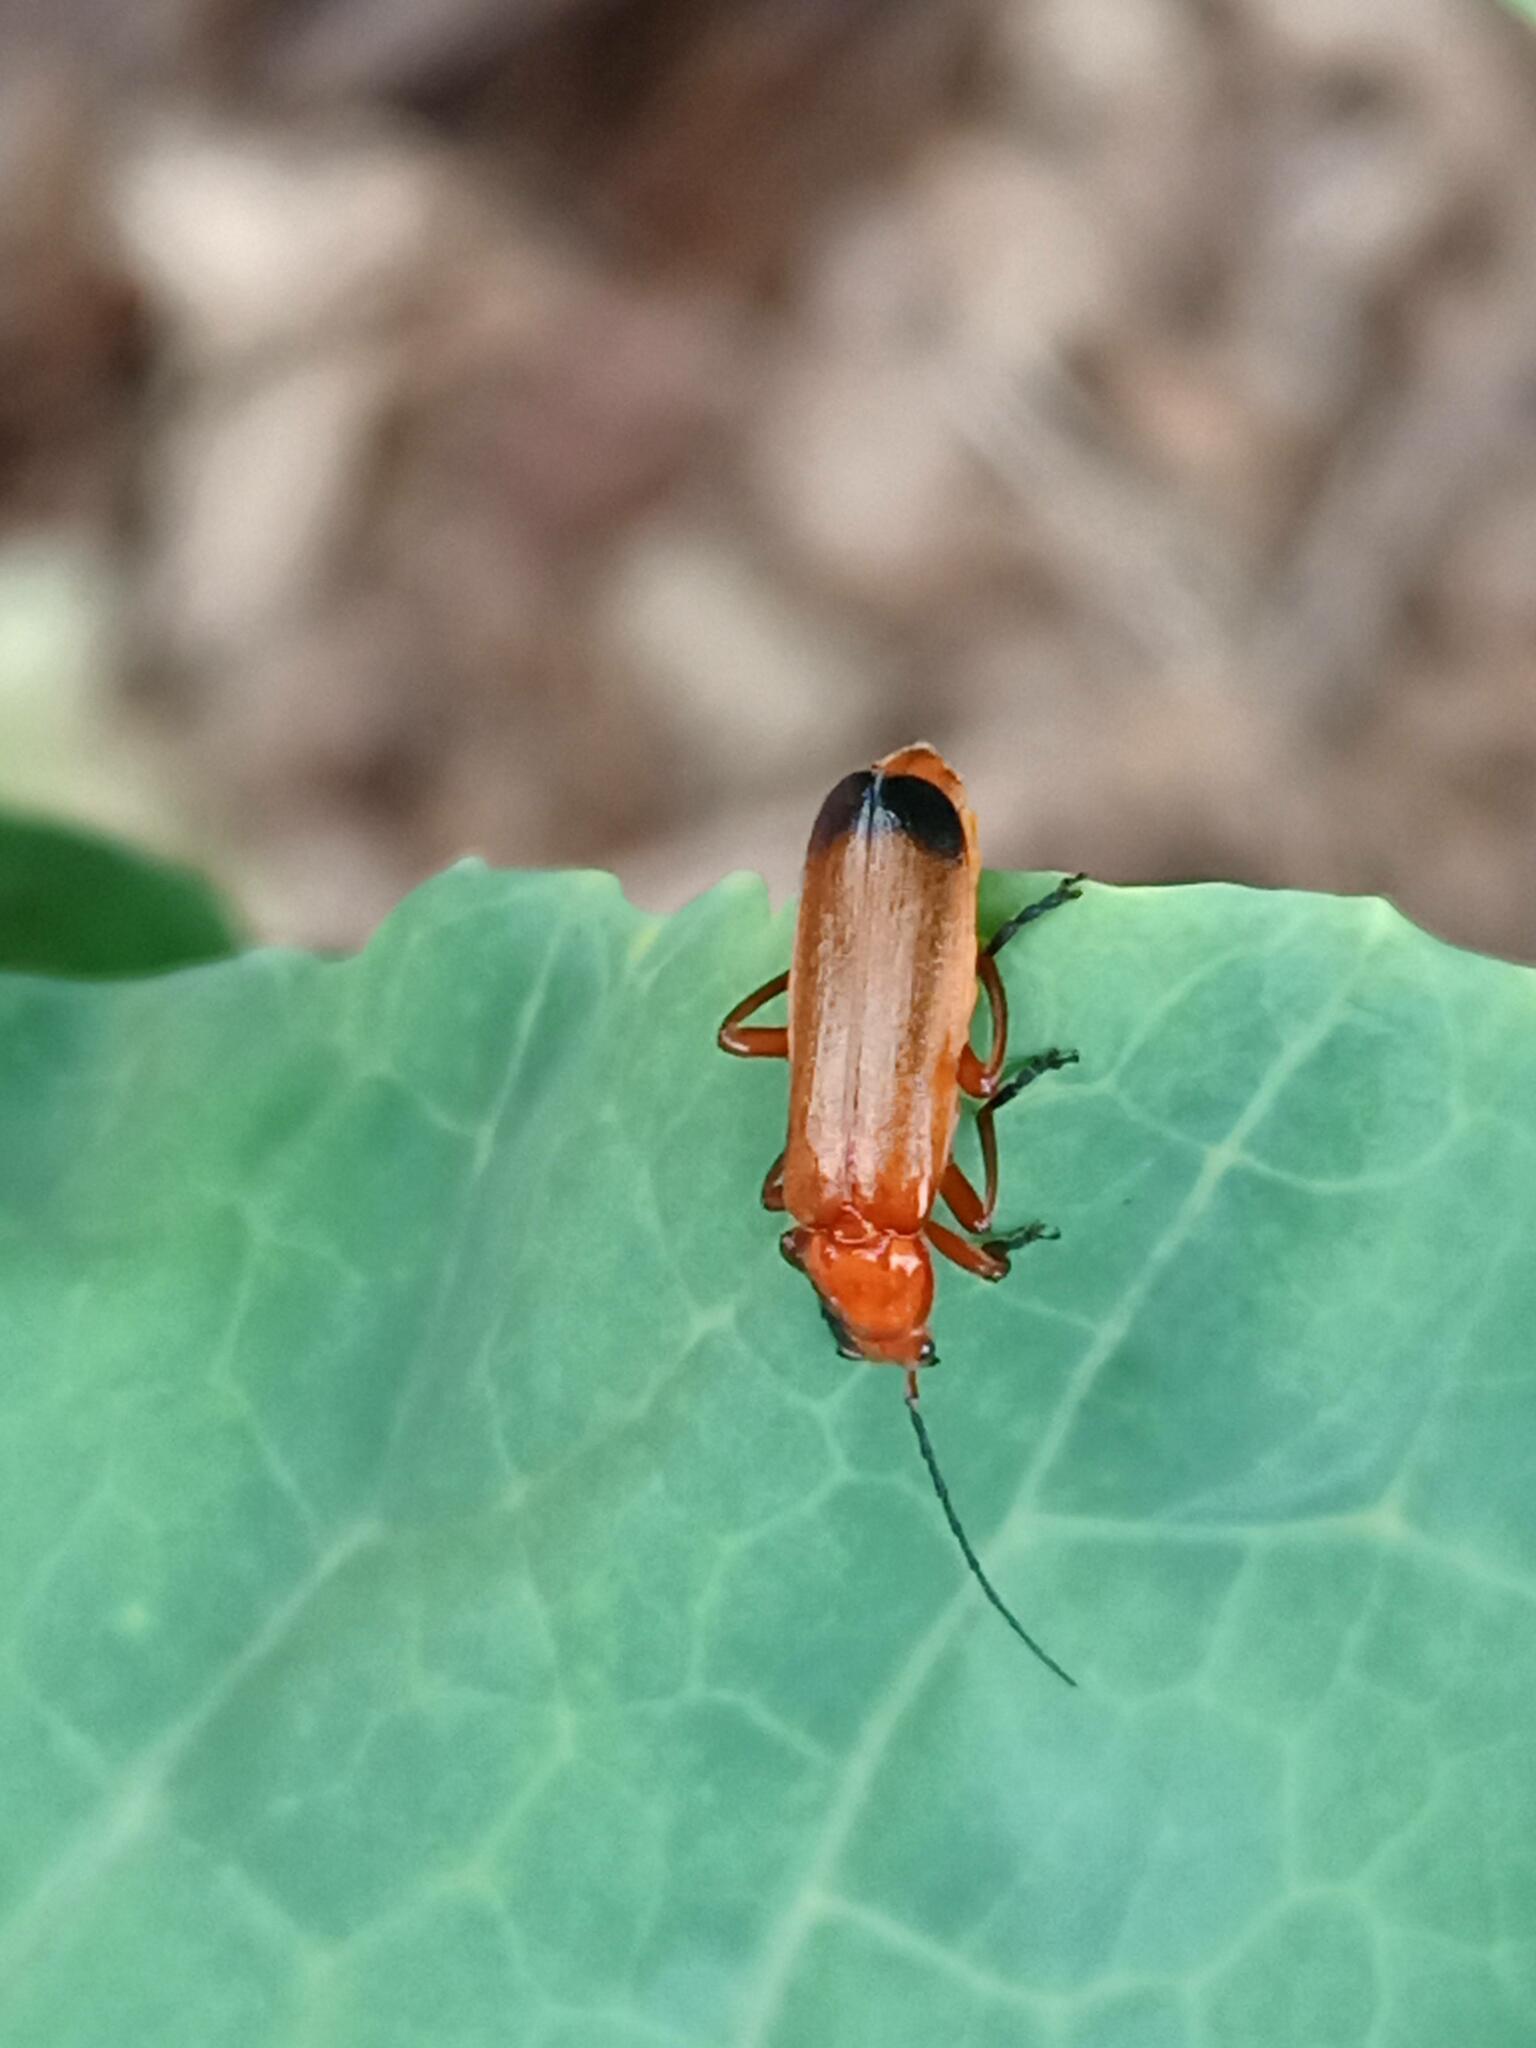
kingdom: Animalia
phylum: Arthropoda
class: Insecta
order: Coleoptera
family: Cantharidae
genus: Rhagonycha
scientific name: Rhagonycha fulva
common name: Common red soldier beetle
